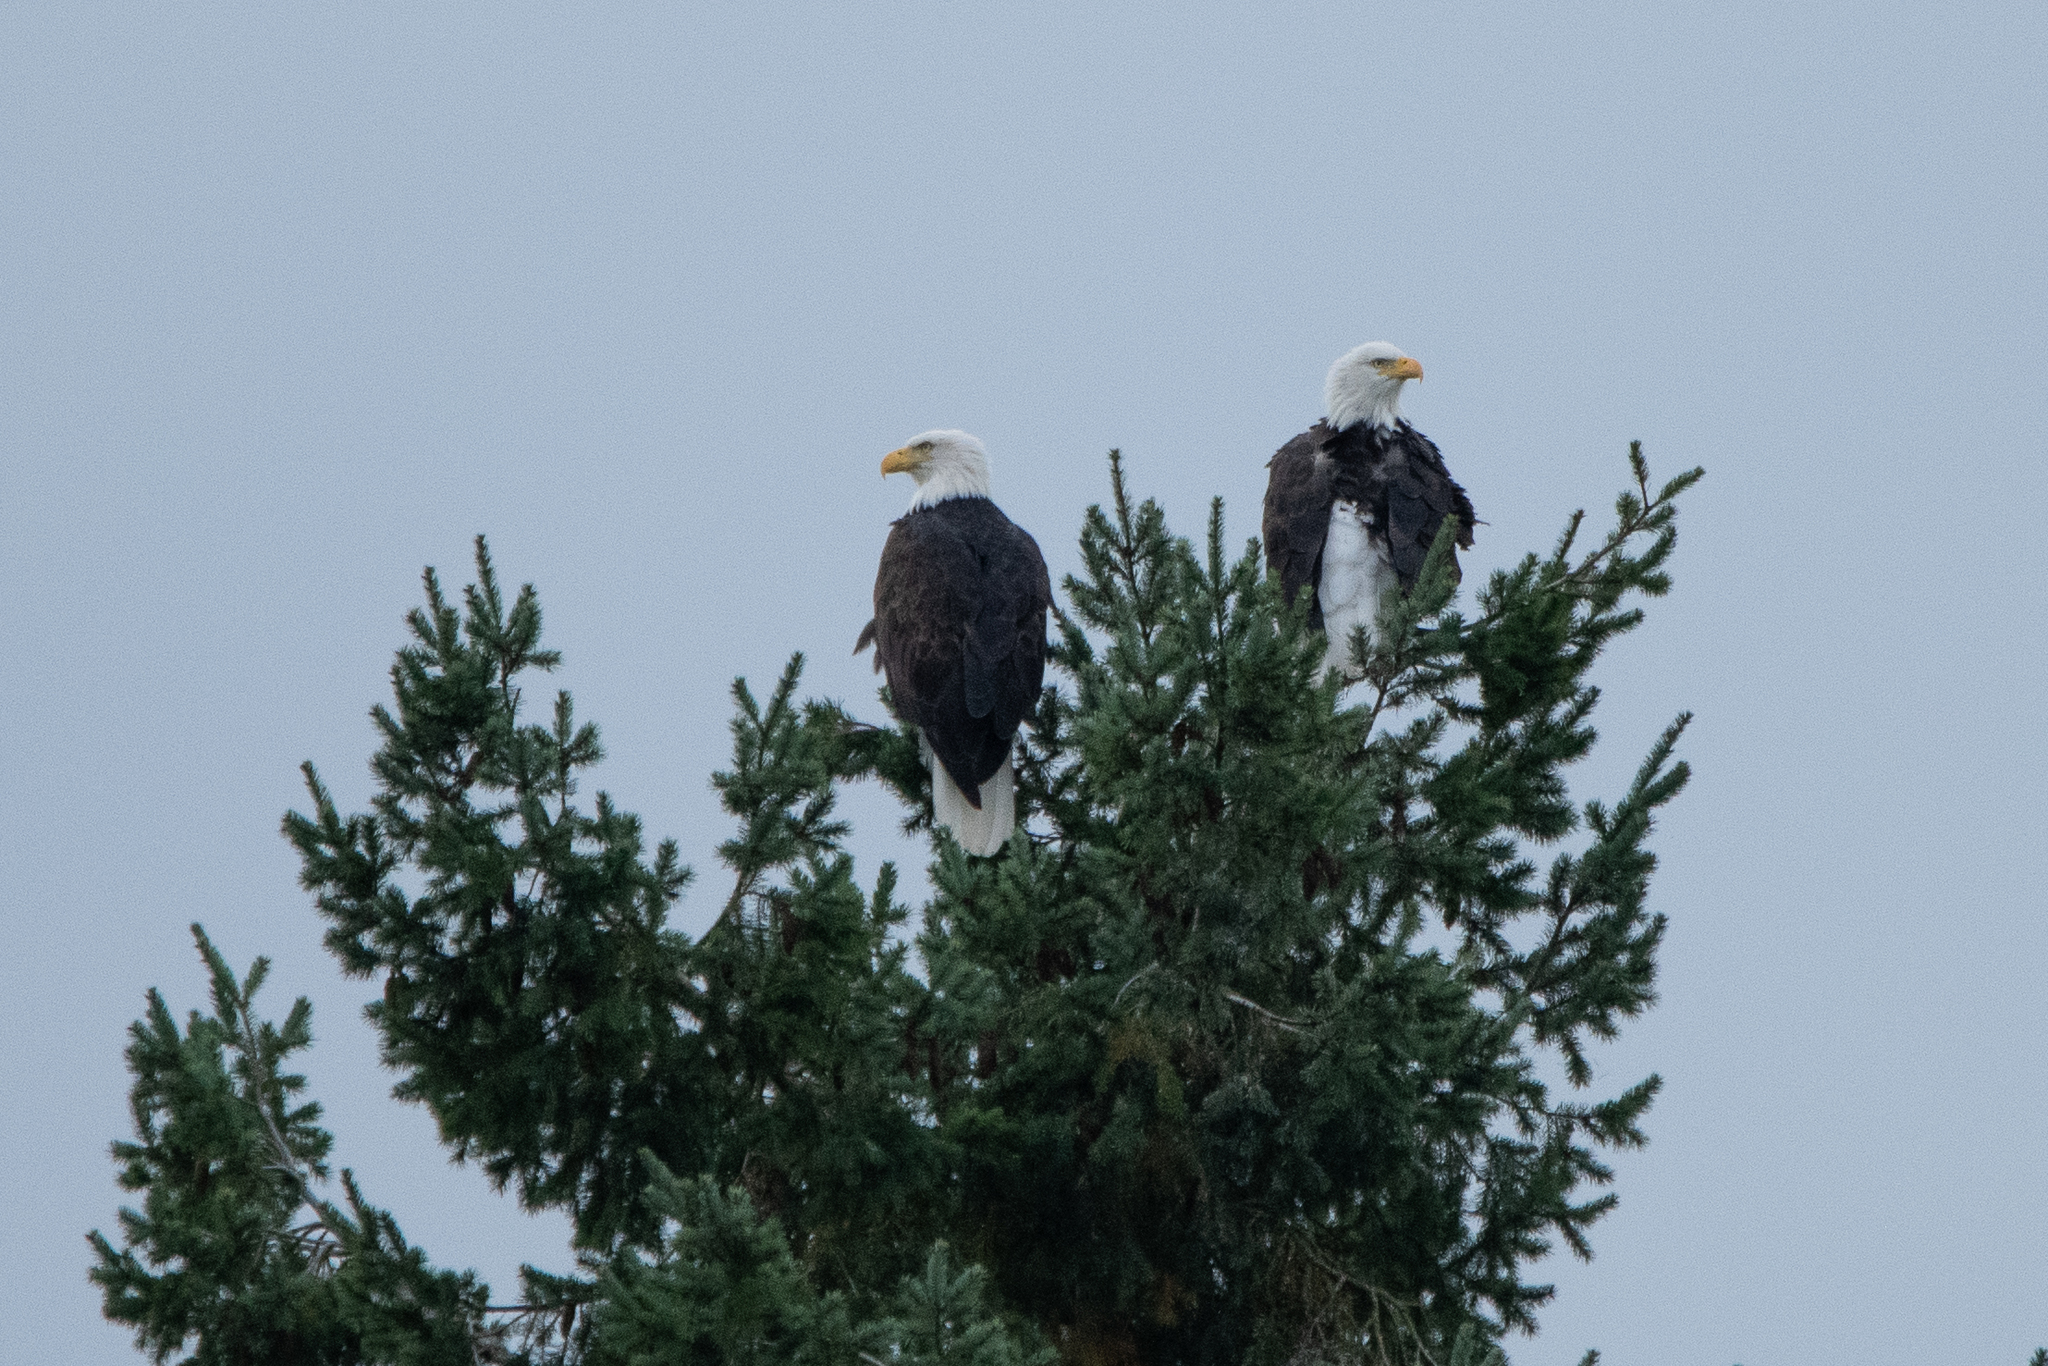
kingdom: Animalia
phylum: Chordata
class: Aves
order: Accipitriformes
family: Accipitridae
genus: Haliaeetus
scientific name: Haliaeetus leucocephalus
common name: Bald eagle
